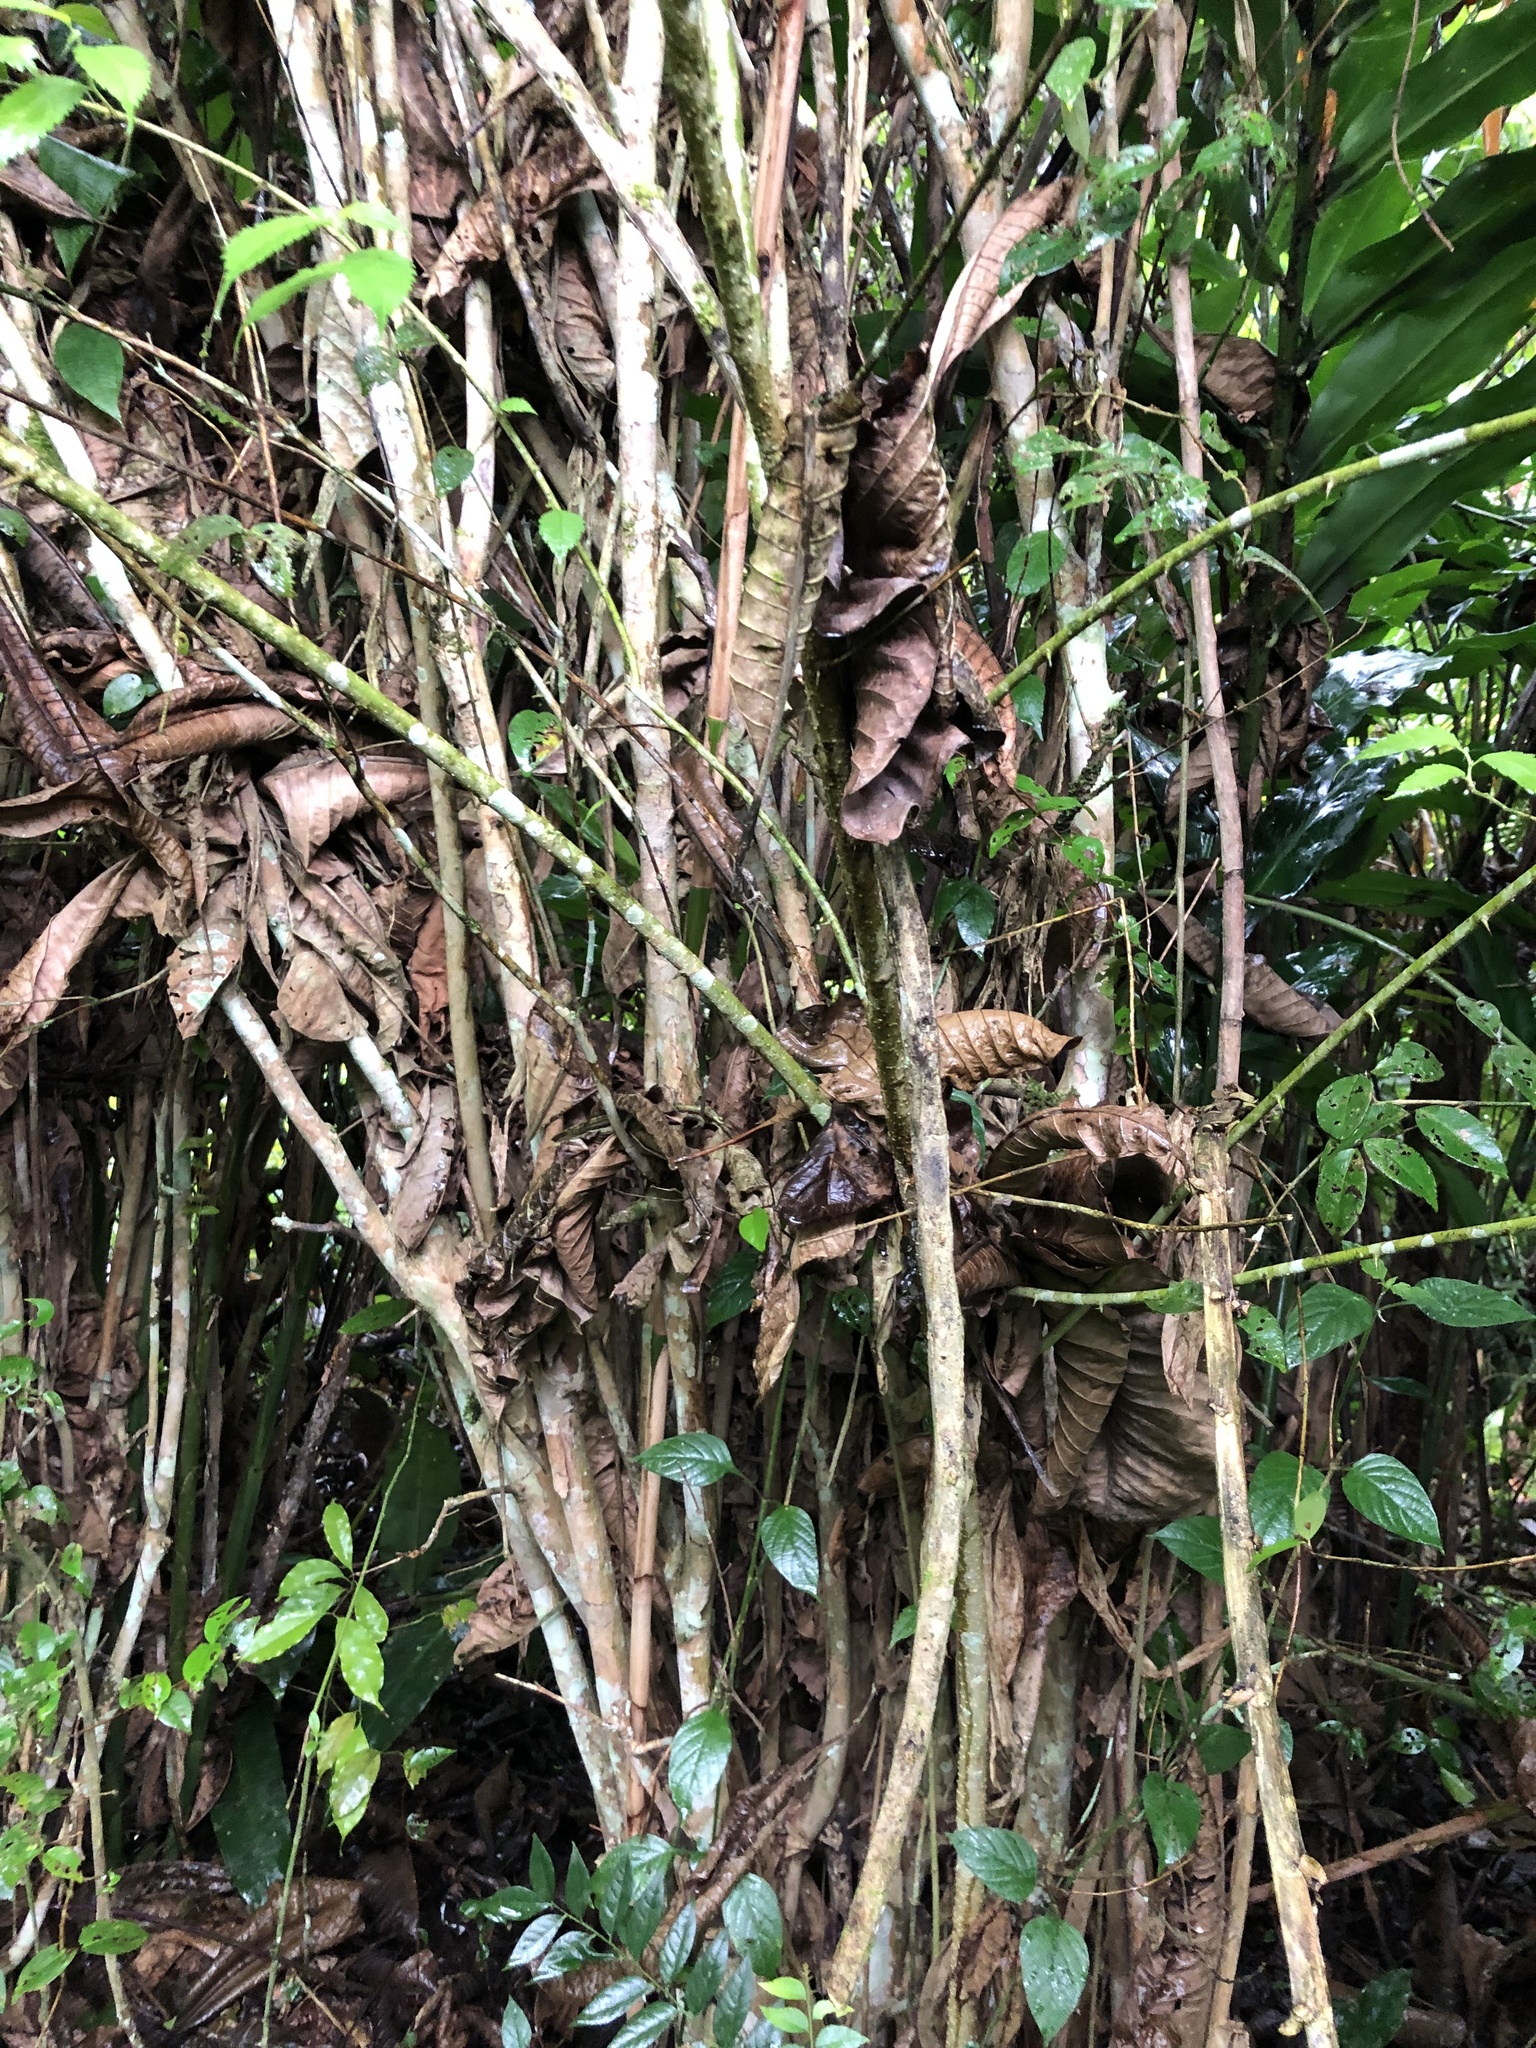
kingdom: Plantae
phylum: Tracheophyta
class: Magnoliopsida
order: Myrtales
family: Myrtaceae
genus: Eugenia
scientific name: Eugenia uniflora
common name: Surinam cherry
